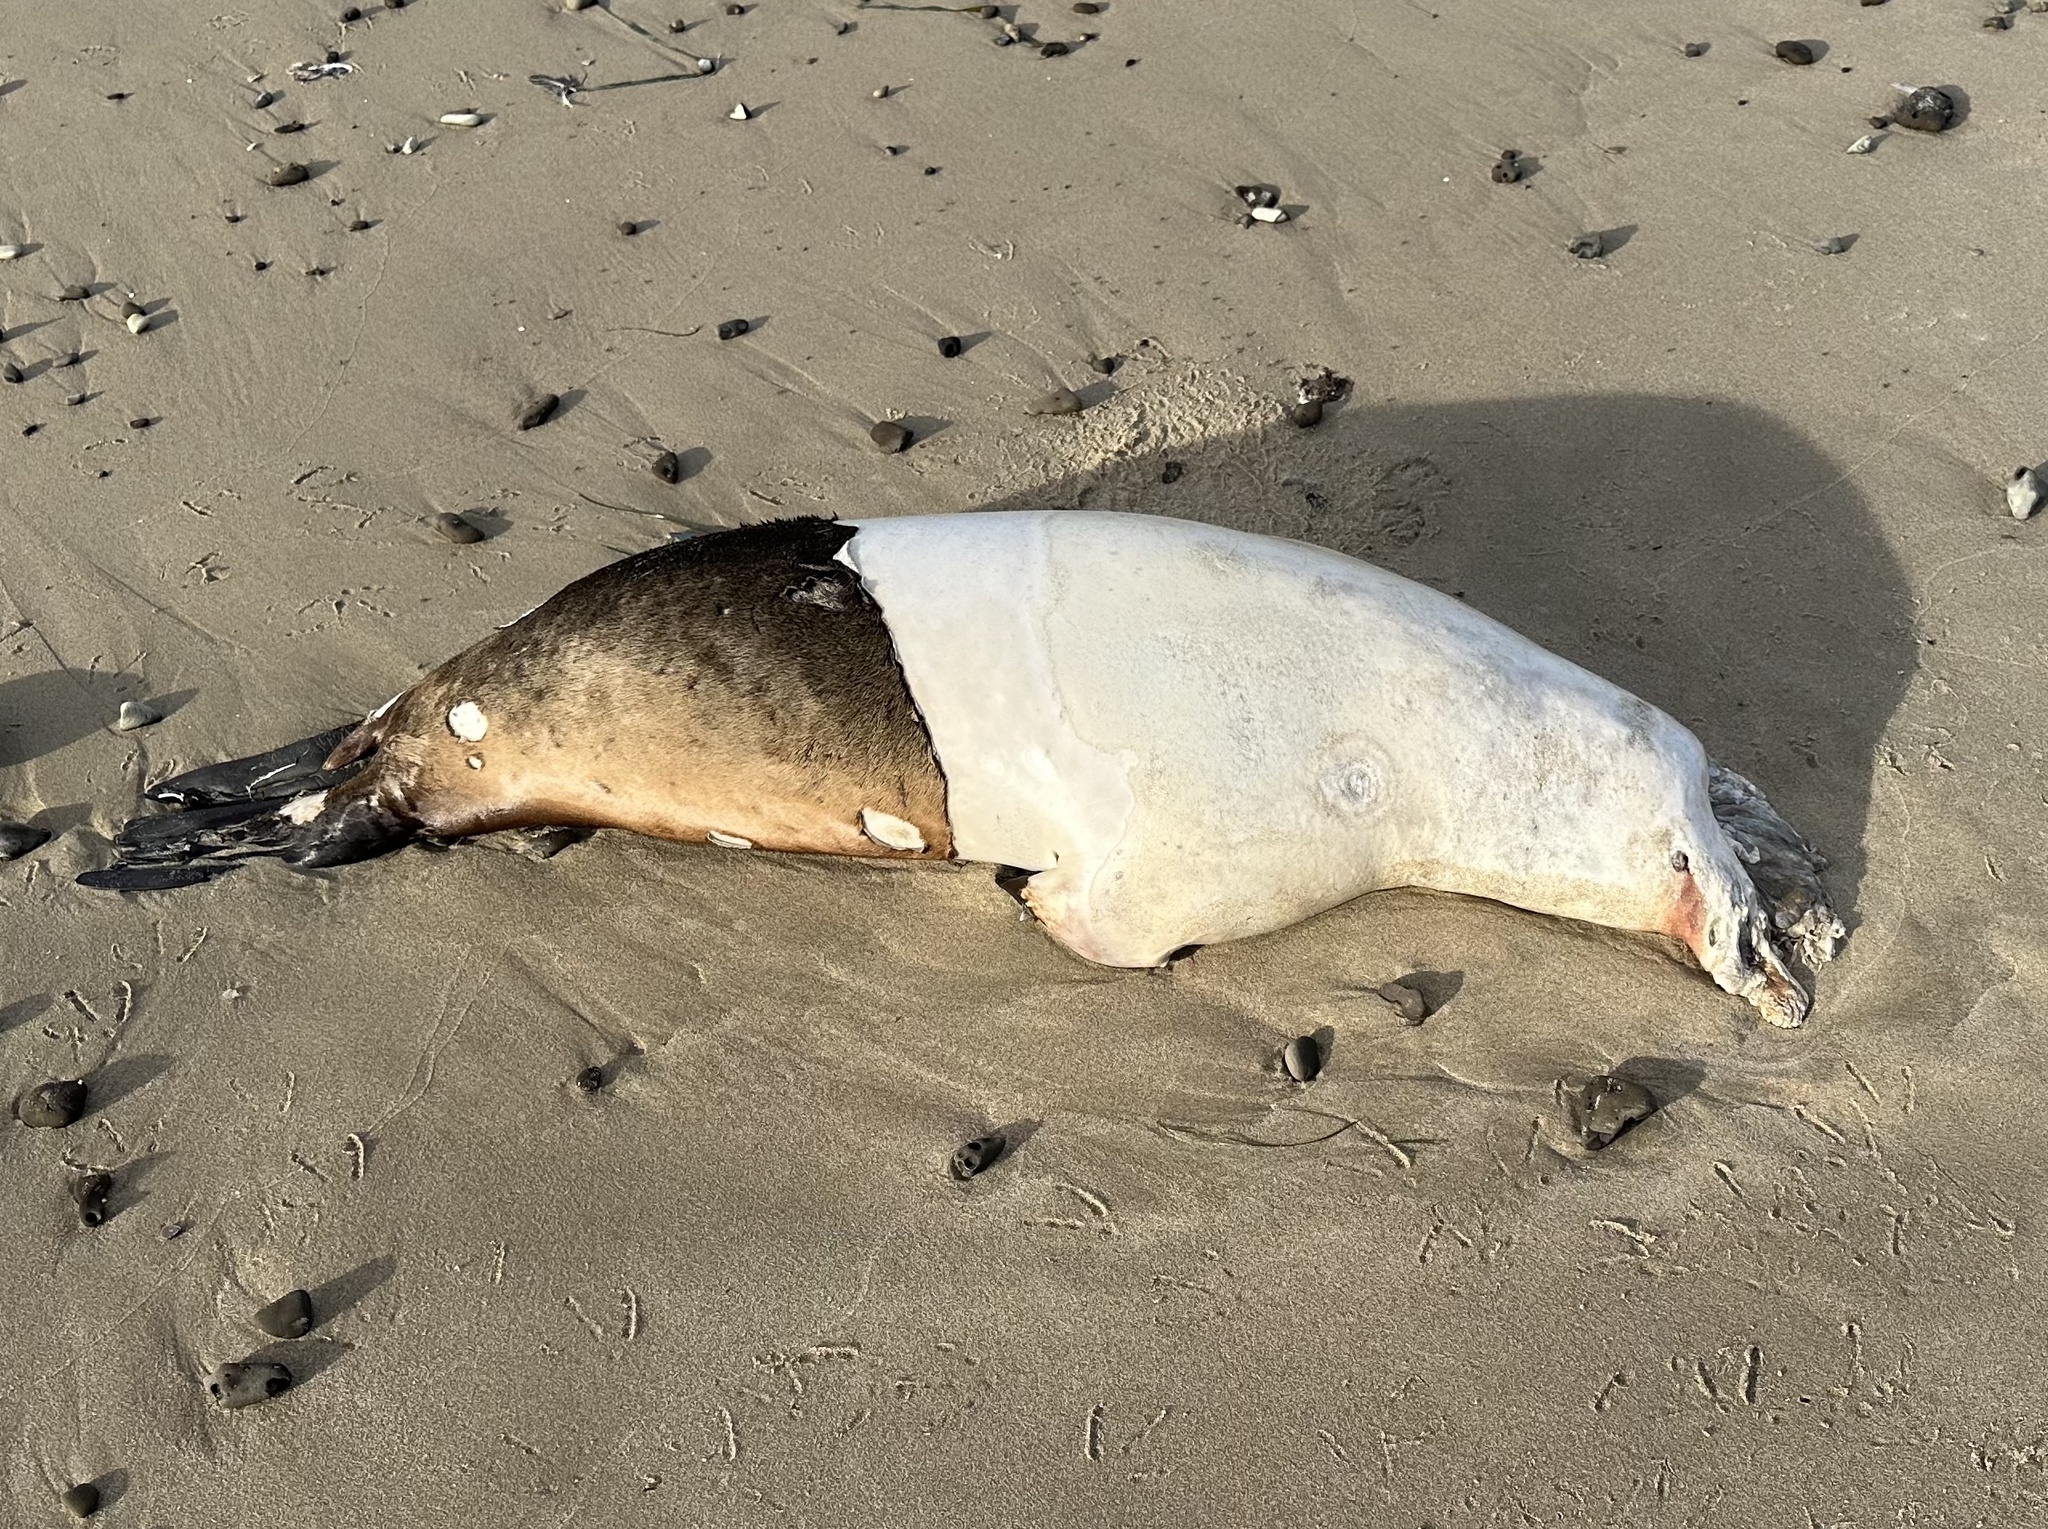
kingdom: Animalia
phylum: Chordata
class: Mammalia
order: Carnivora
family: Otariidae
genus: Zalophus
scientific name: Zalophus californianus
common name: California sea lion
